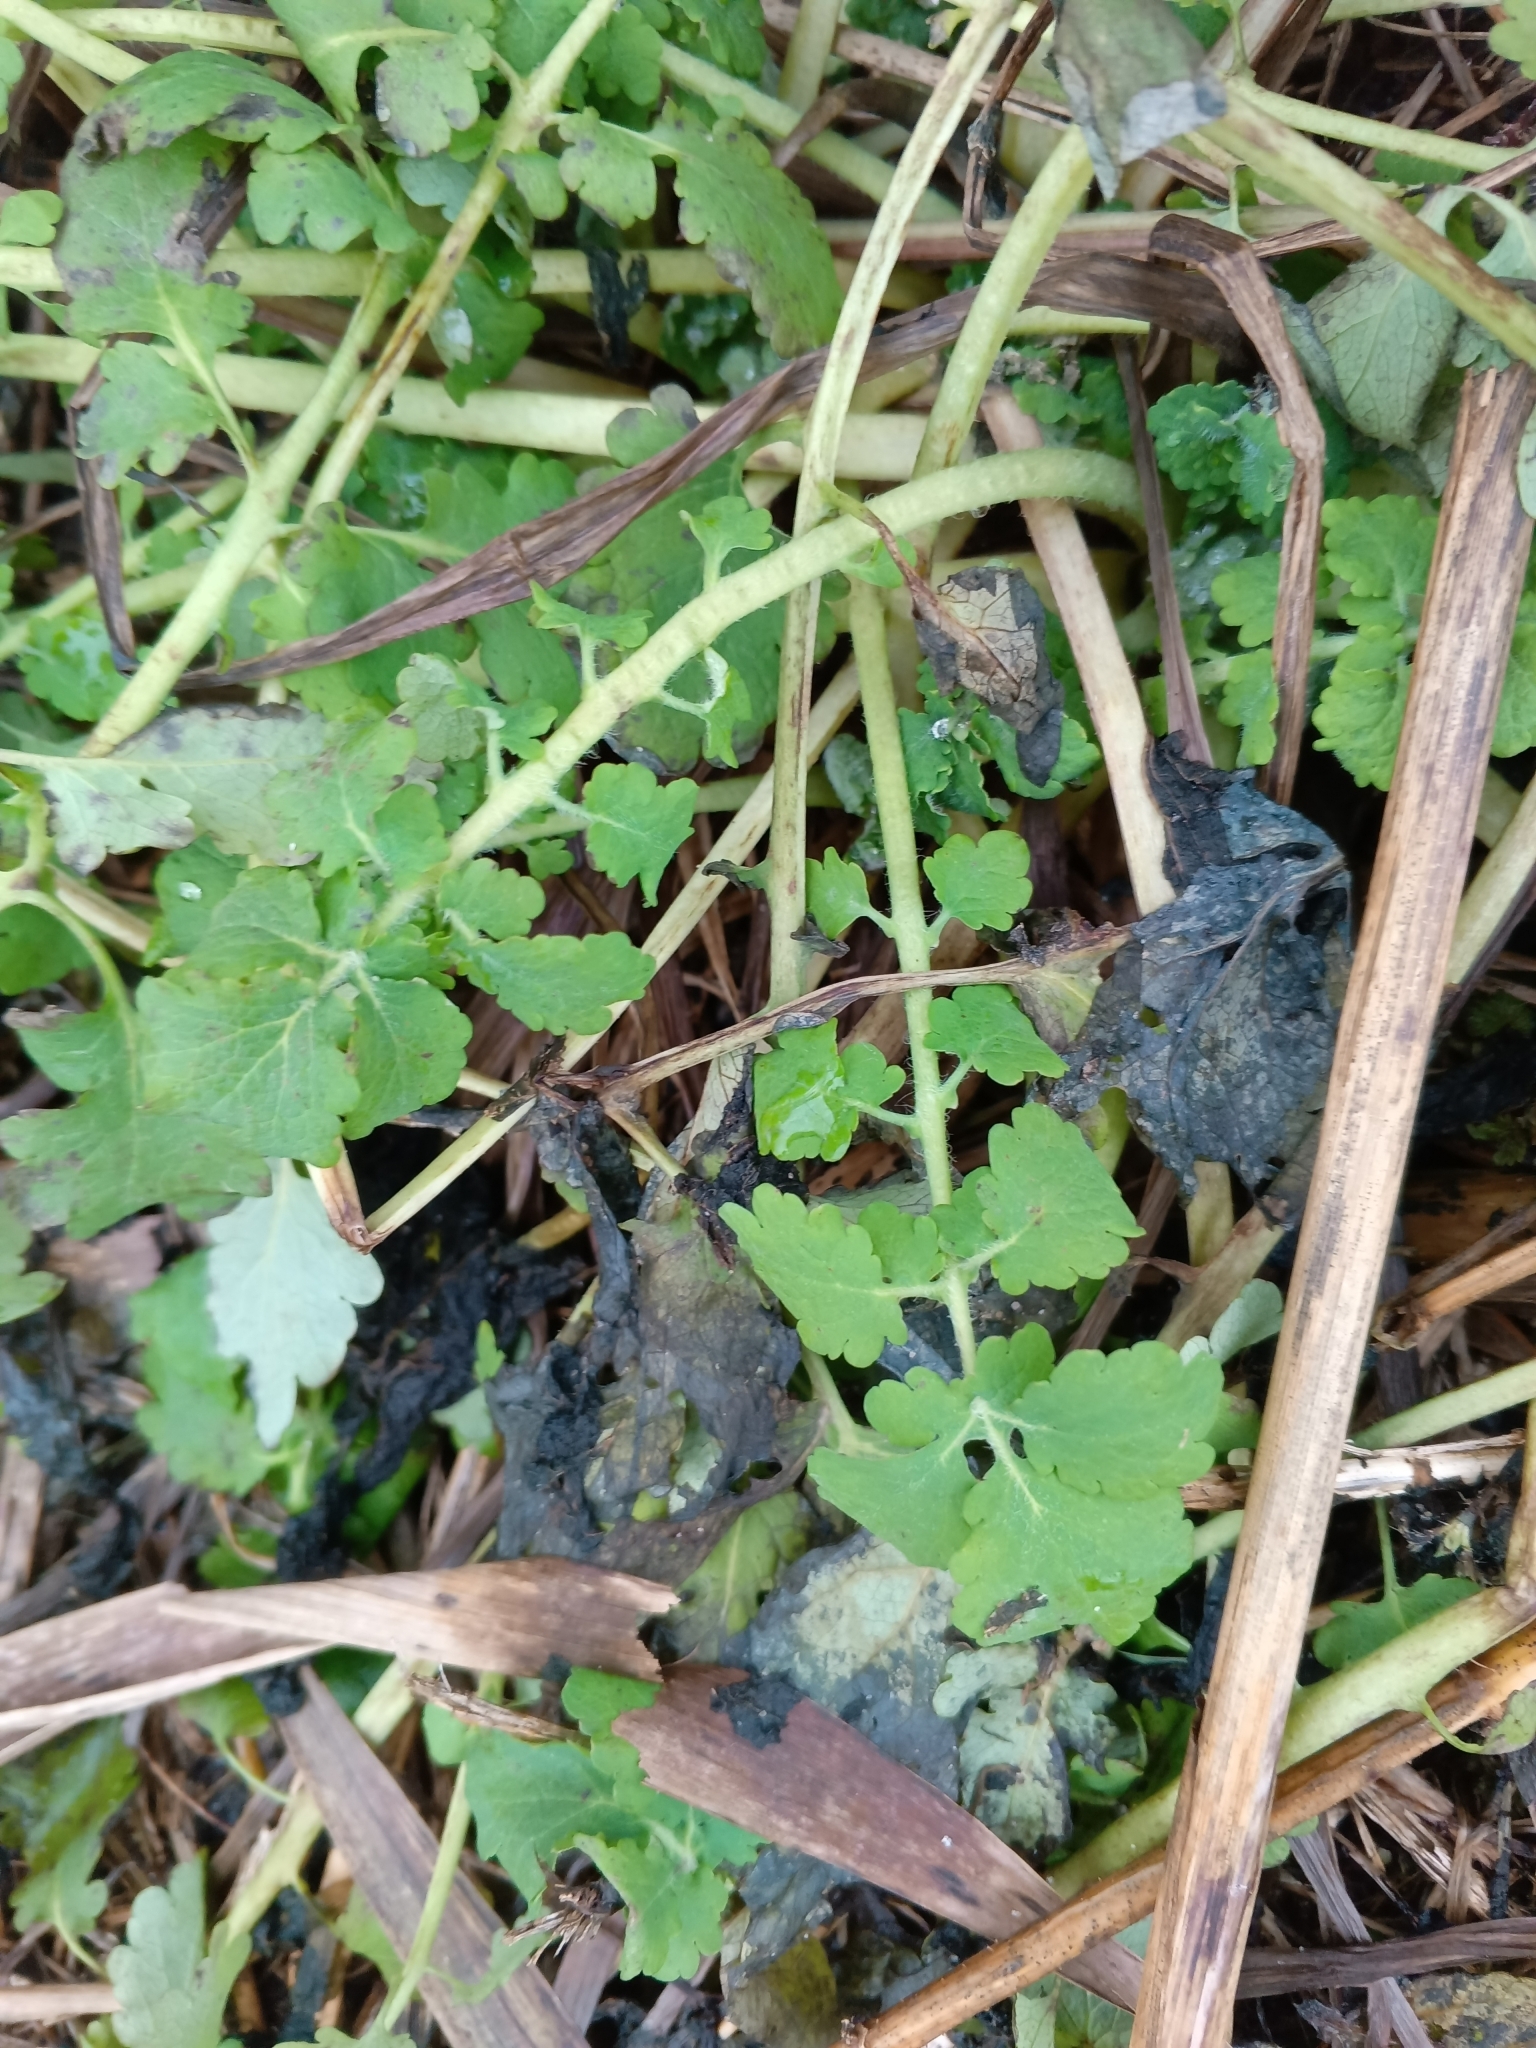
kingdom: Plantae
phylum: Tracheophyta
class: Magnoliopsida
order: Ranunculales
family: Papaveraceae
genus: Chelidonium
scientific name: Chelidonium majus
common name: Greater celandine
